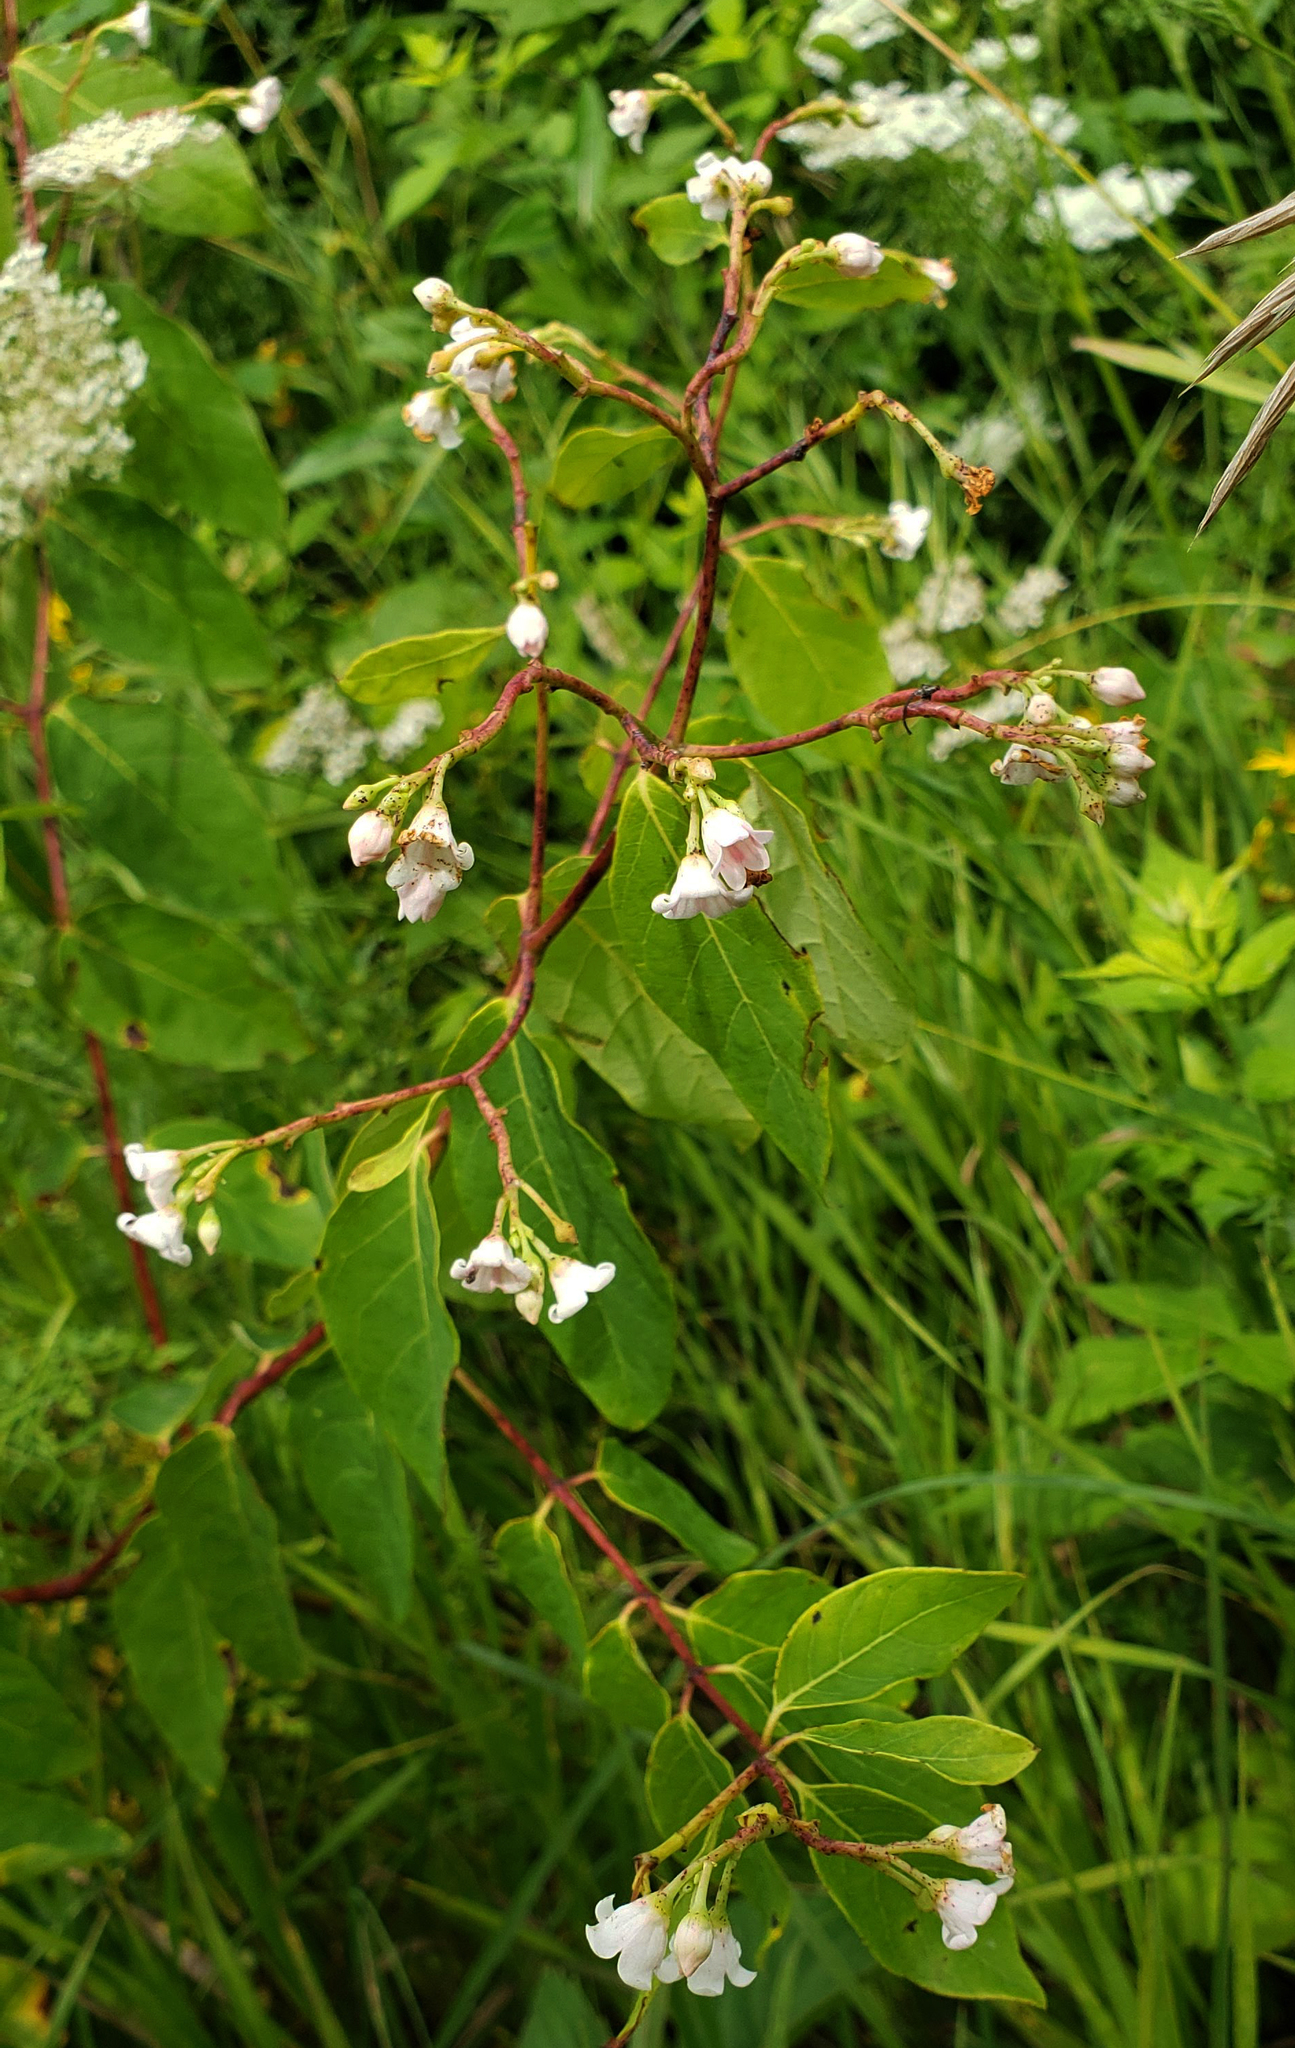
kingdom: Plantae
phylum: Tracheophyta
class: Magnoliopsida
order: Gentianales
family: Apocynaceae
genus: Apocynum
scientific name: Apocynum androsaemifolium
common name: Spreading dogbane
